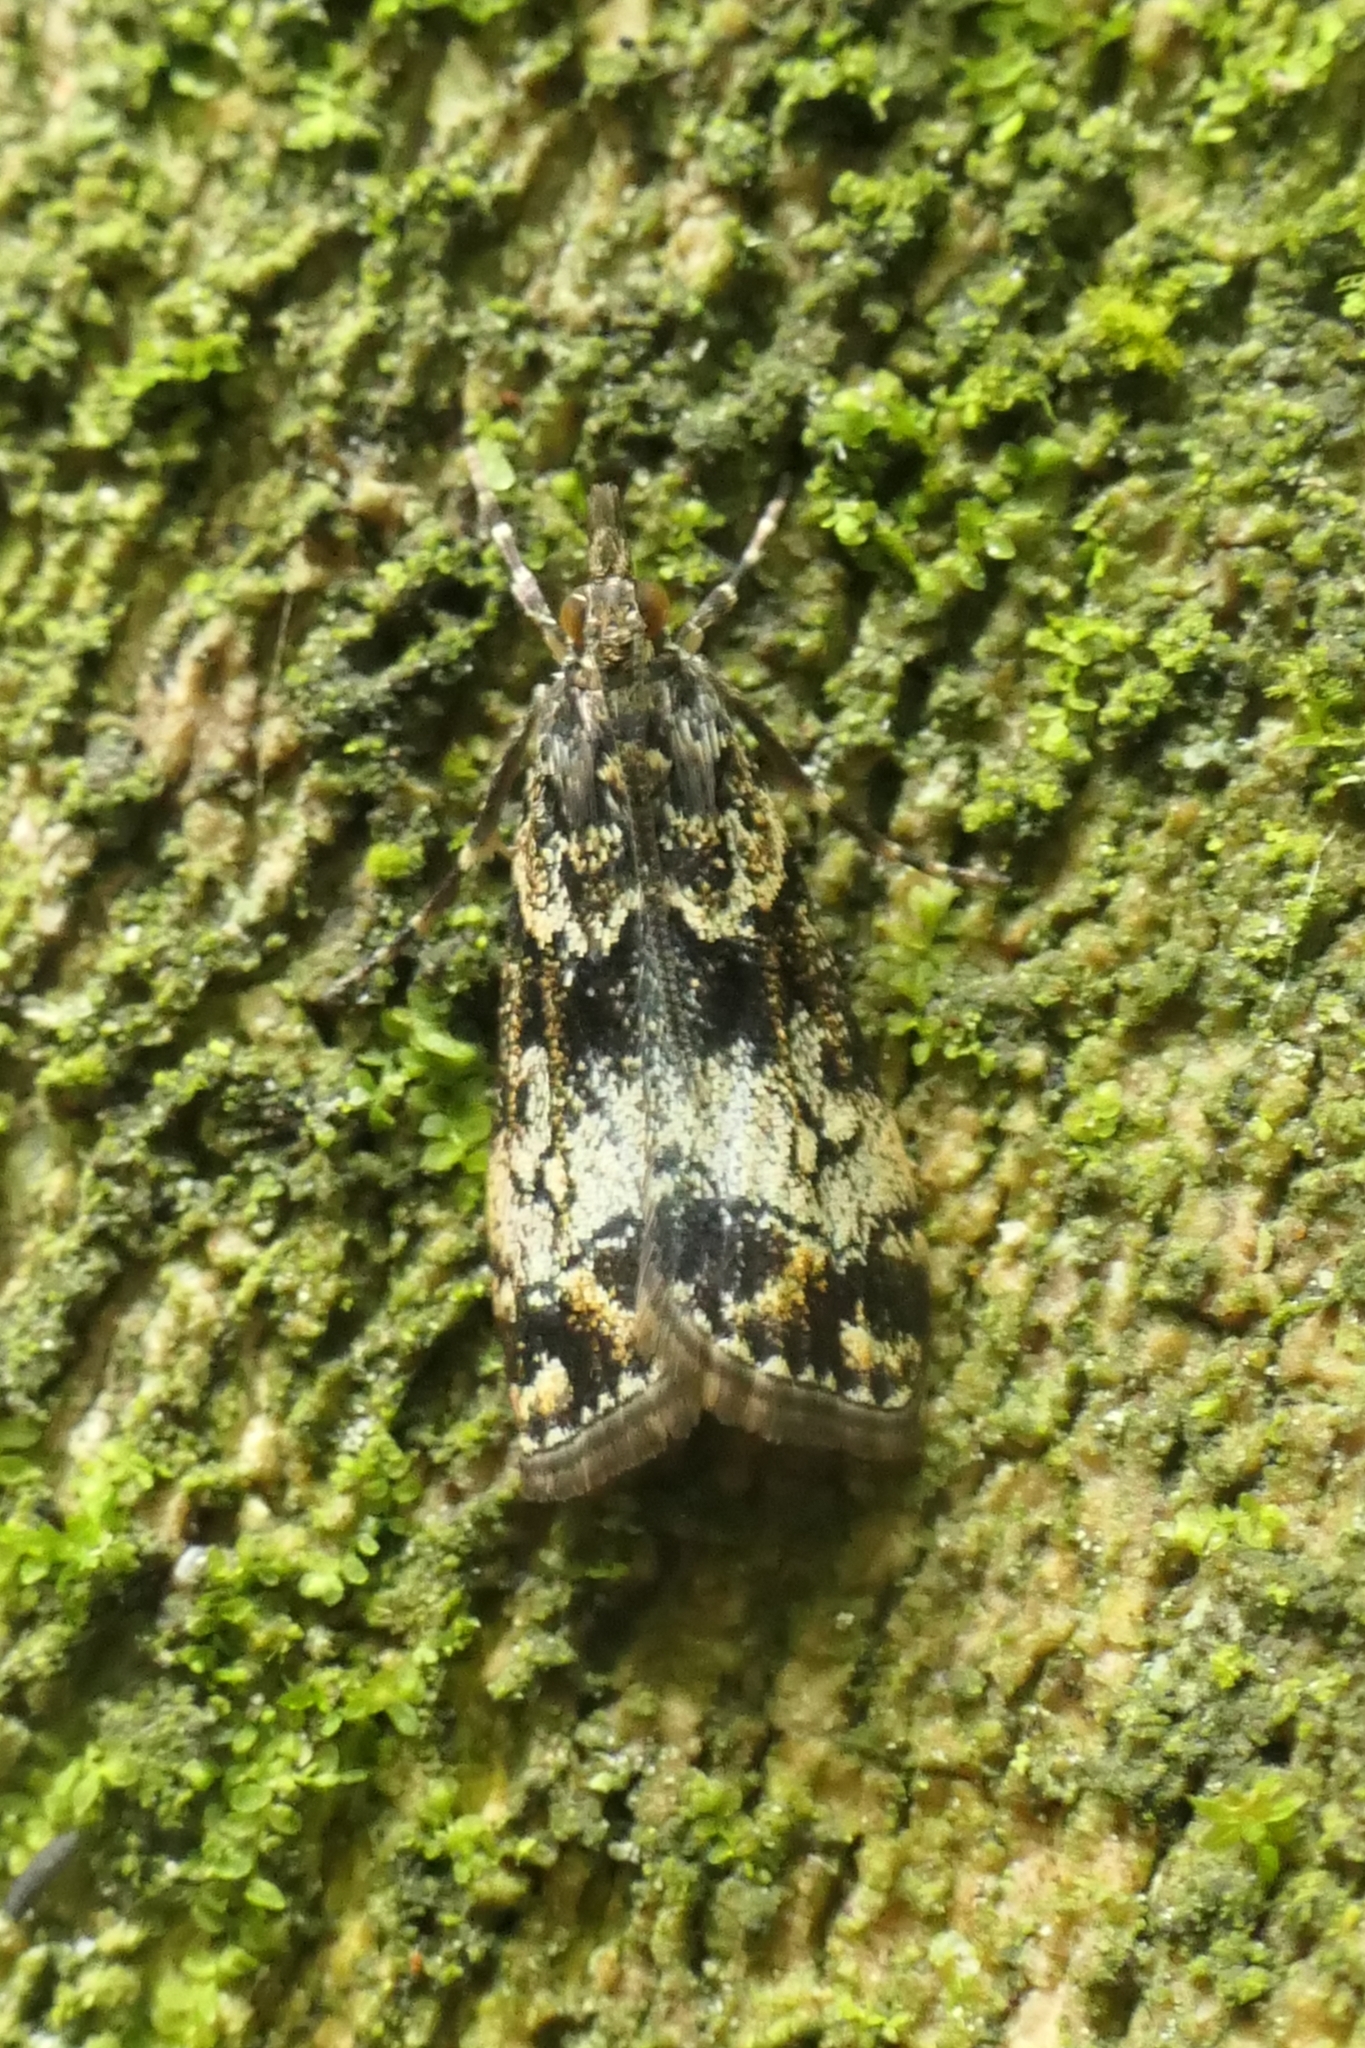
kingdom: Animalia
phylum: Arthropoda
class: Insecta
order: Lepidoptera
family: Crambidae
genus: Eudonia
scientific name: Eudonia minualis
